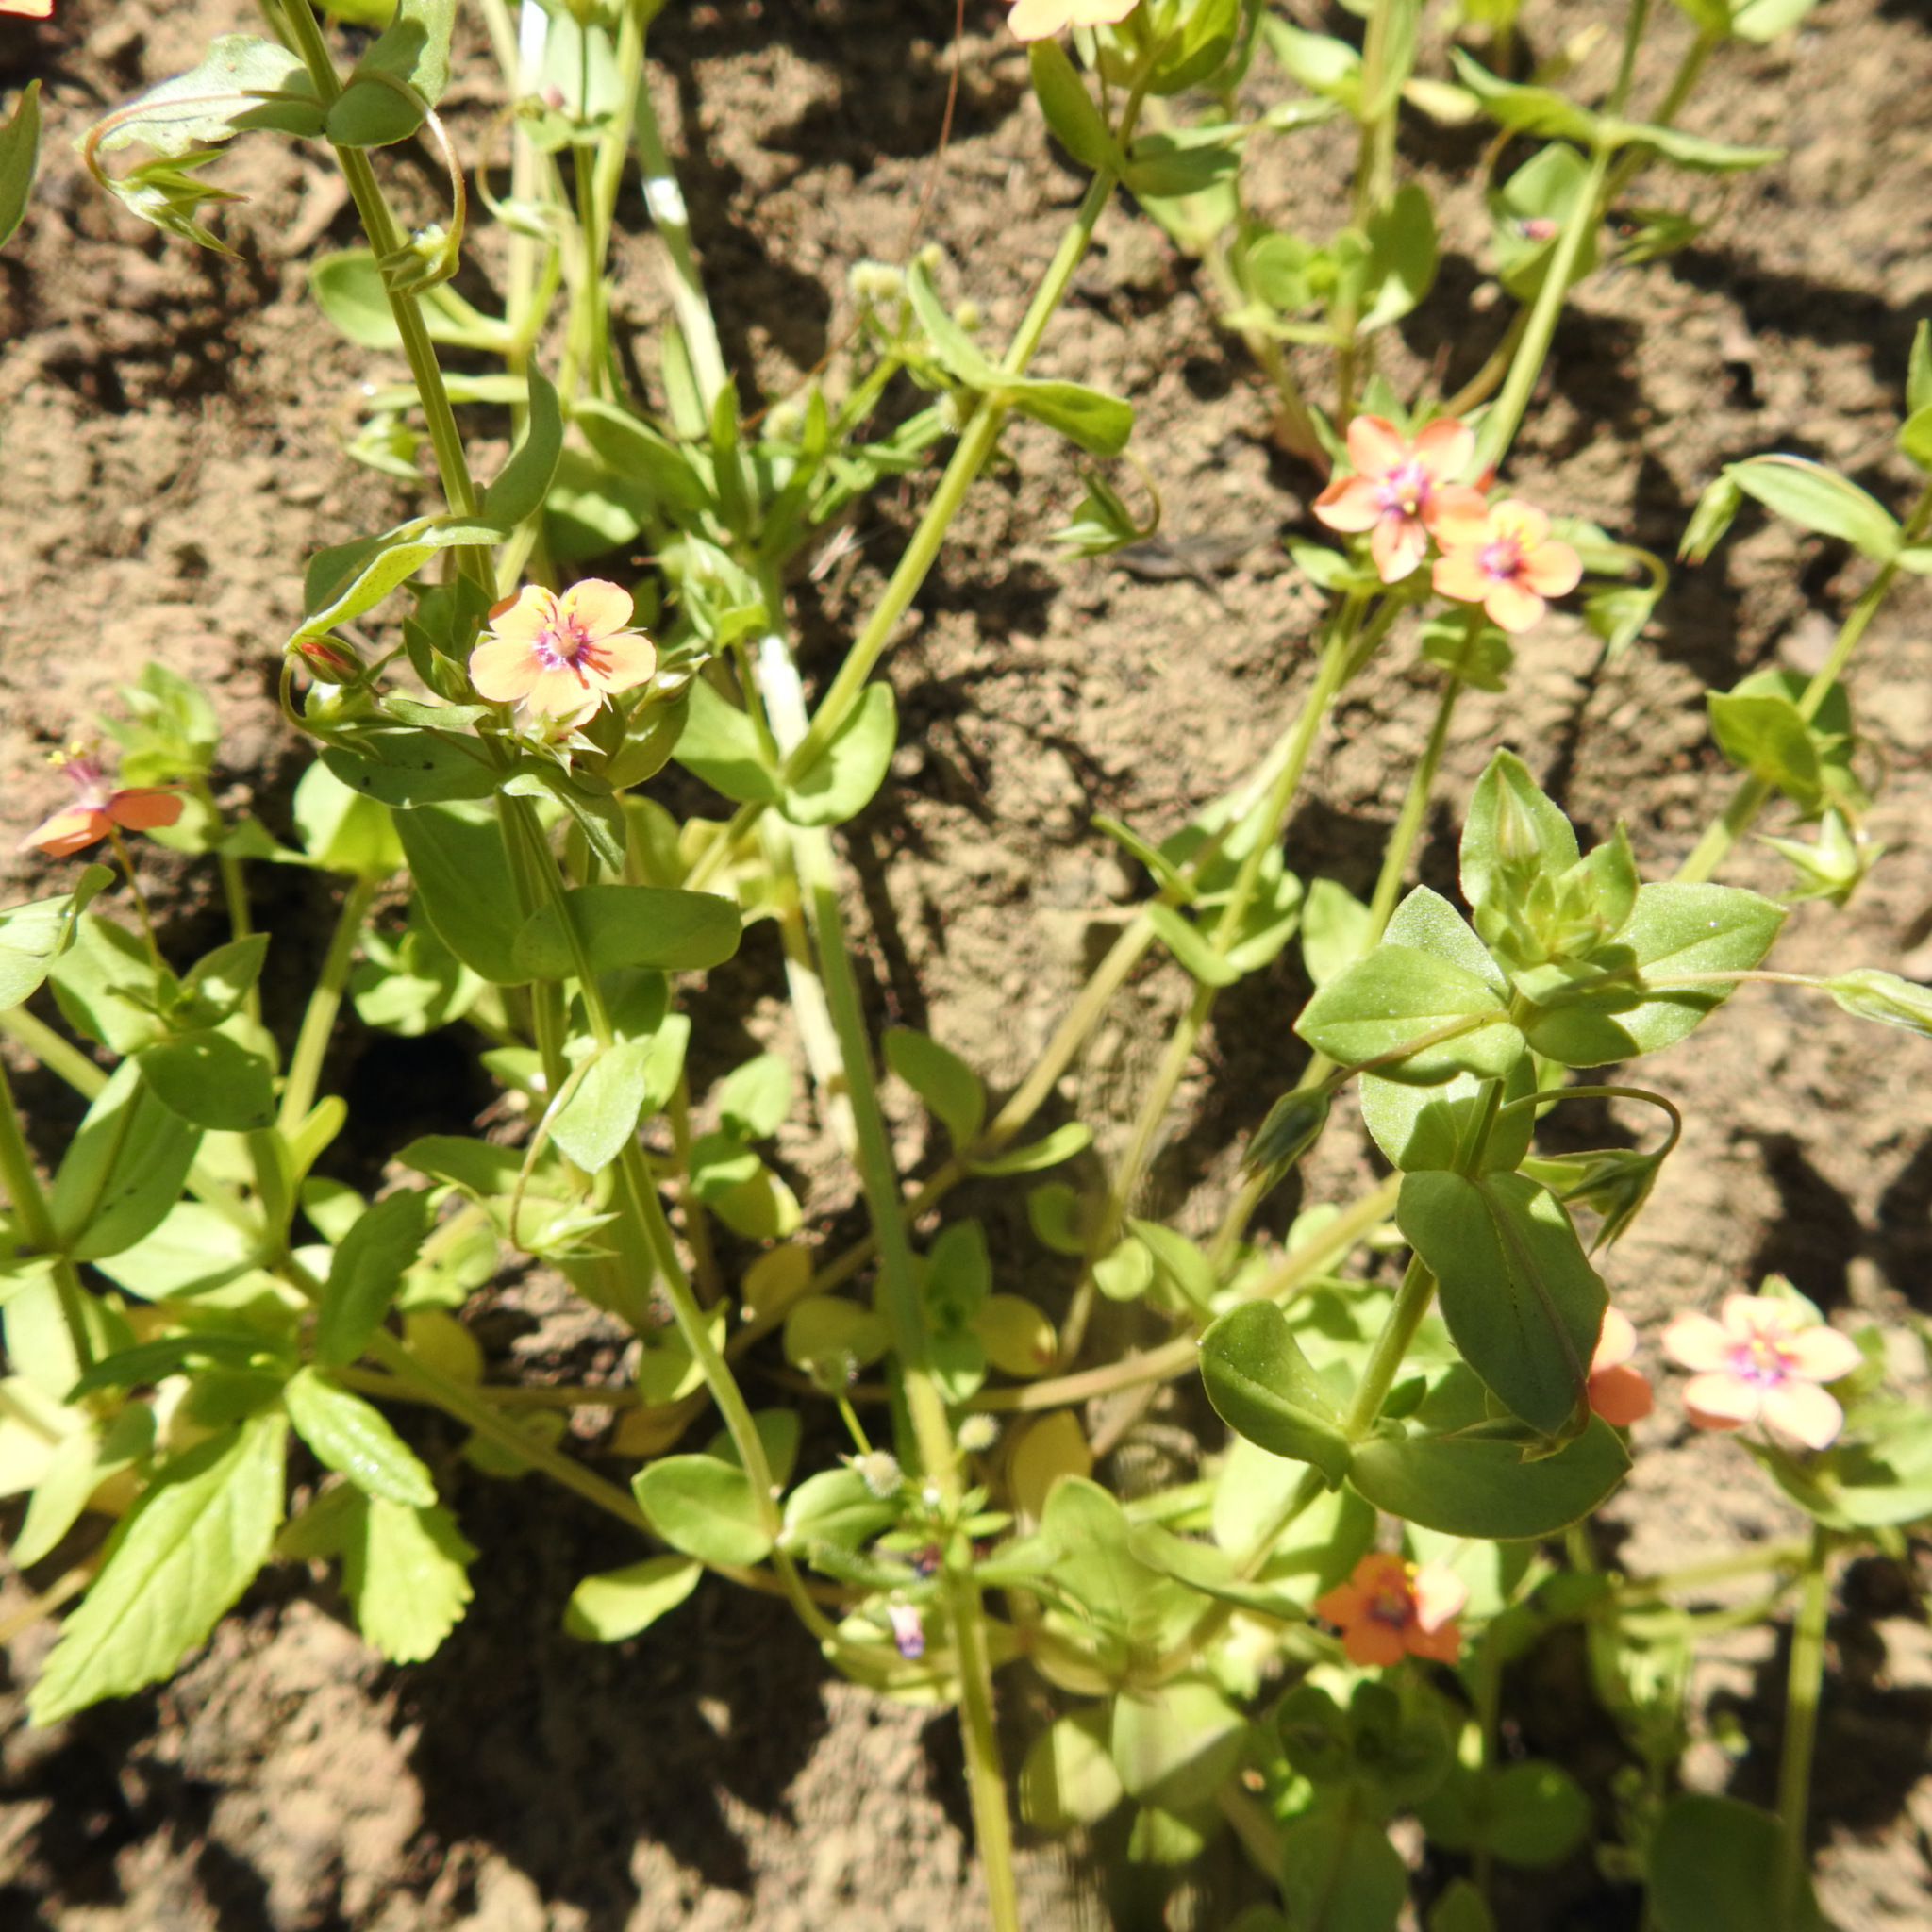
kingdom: Plantae
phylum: Tracheophyta
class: Magnoliopsida
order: Ericales
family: Primulaceae
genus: Lysimachia
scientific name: Lysimachia arvensis
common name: Scarlet pimpernel
